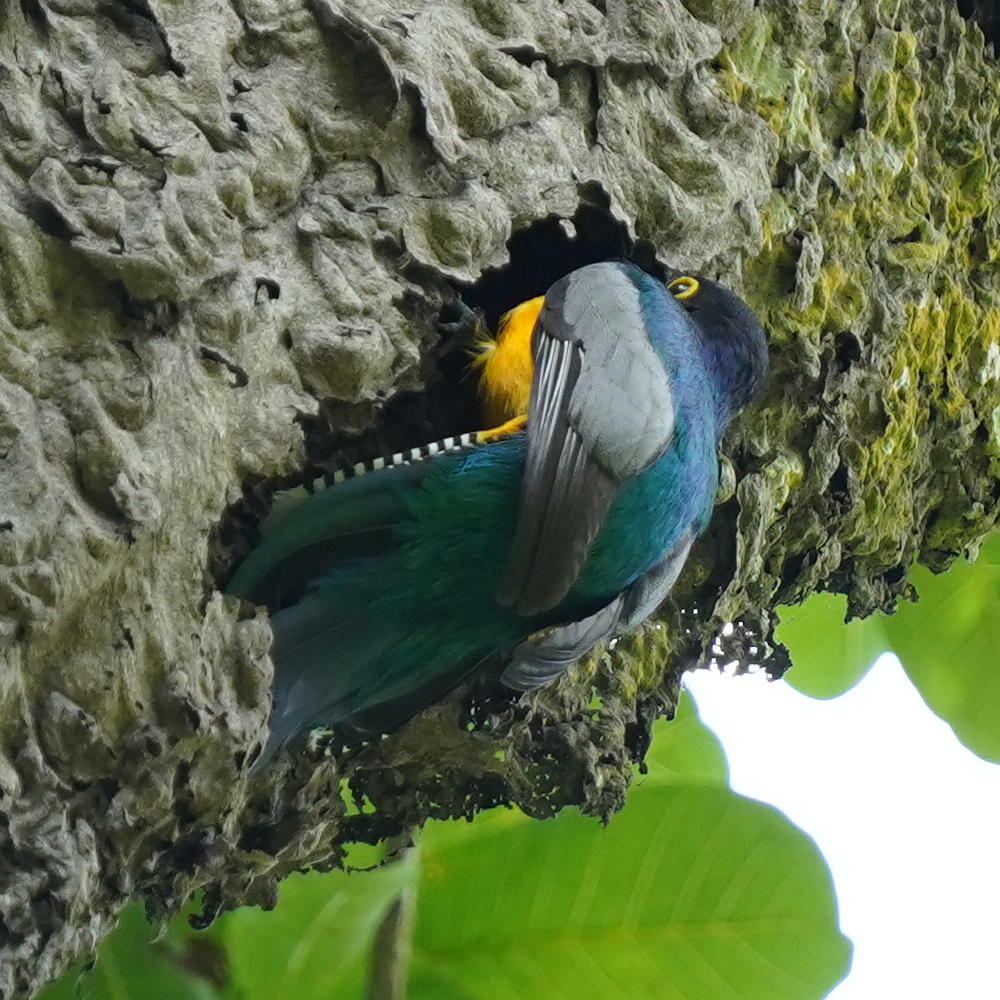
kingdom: Animalia
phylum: Chordata
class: Aves
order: Trogoniformes
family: Trogonidae
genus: Trogon
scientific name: Trogon caligatus
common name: Gartered trogon
